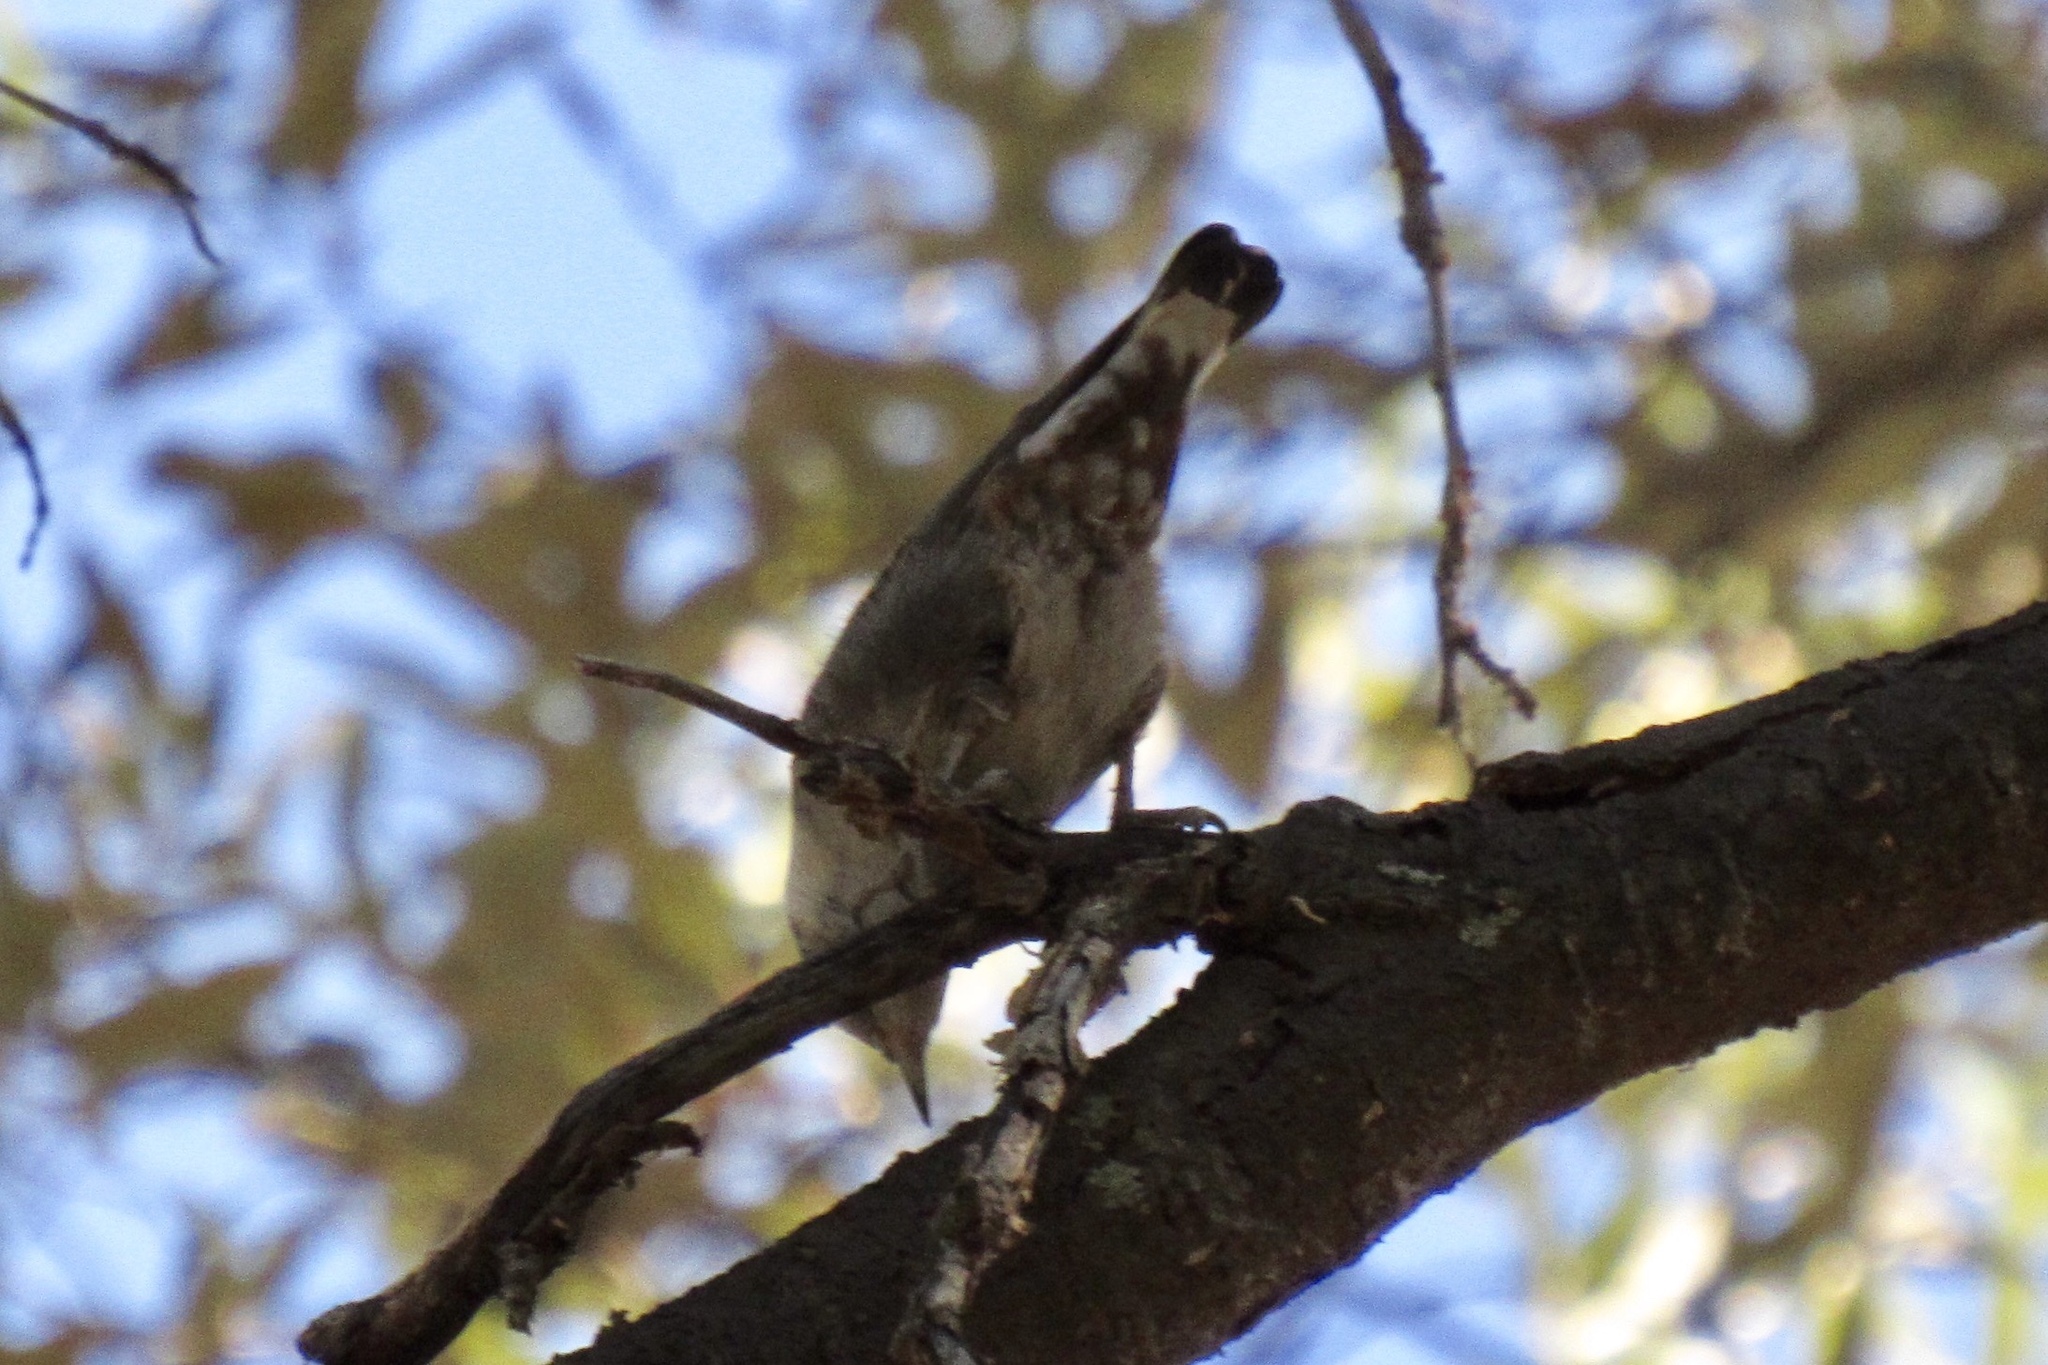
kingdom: Animalia
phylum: Chordata
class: Aves
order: Passeriformes
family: Sittidae
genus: Sitta
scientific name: Sitta carolinensis
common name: White-breasted nuthatch
